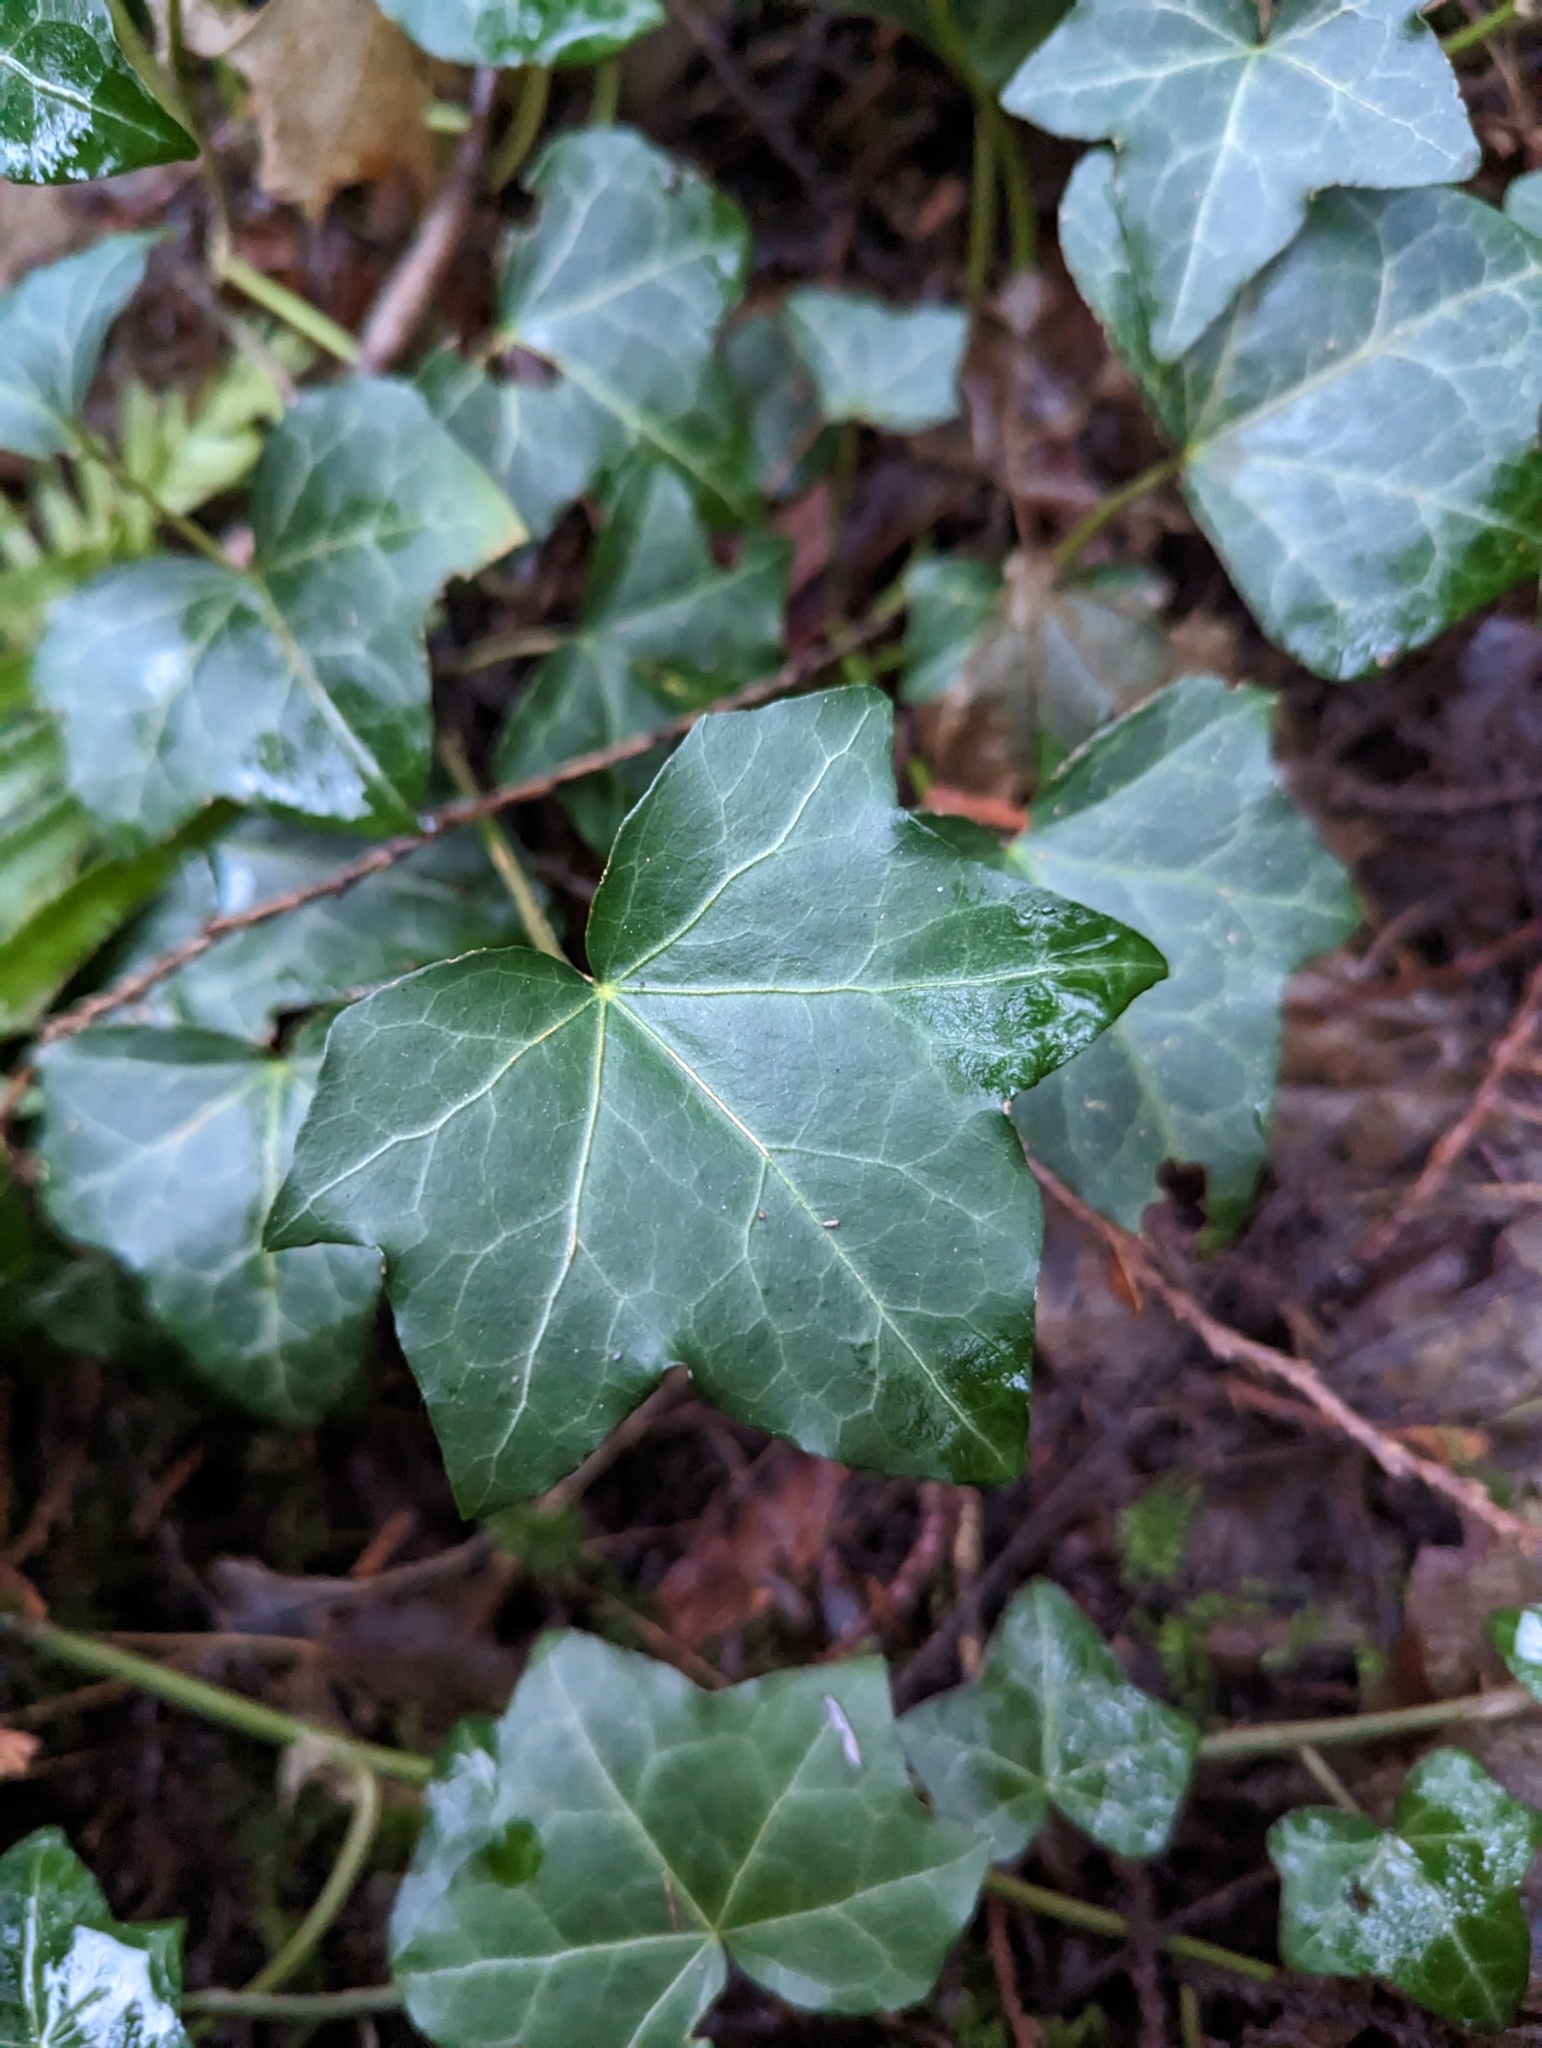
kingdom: Plantae
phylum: Tracheophyta
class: Magnoliopsida
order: Apiales
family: Araliaceae
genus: Hedera
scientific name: Hedera helix
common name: Ivy
